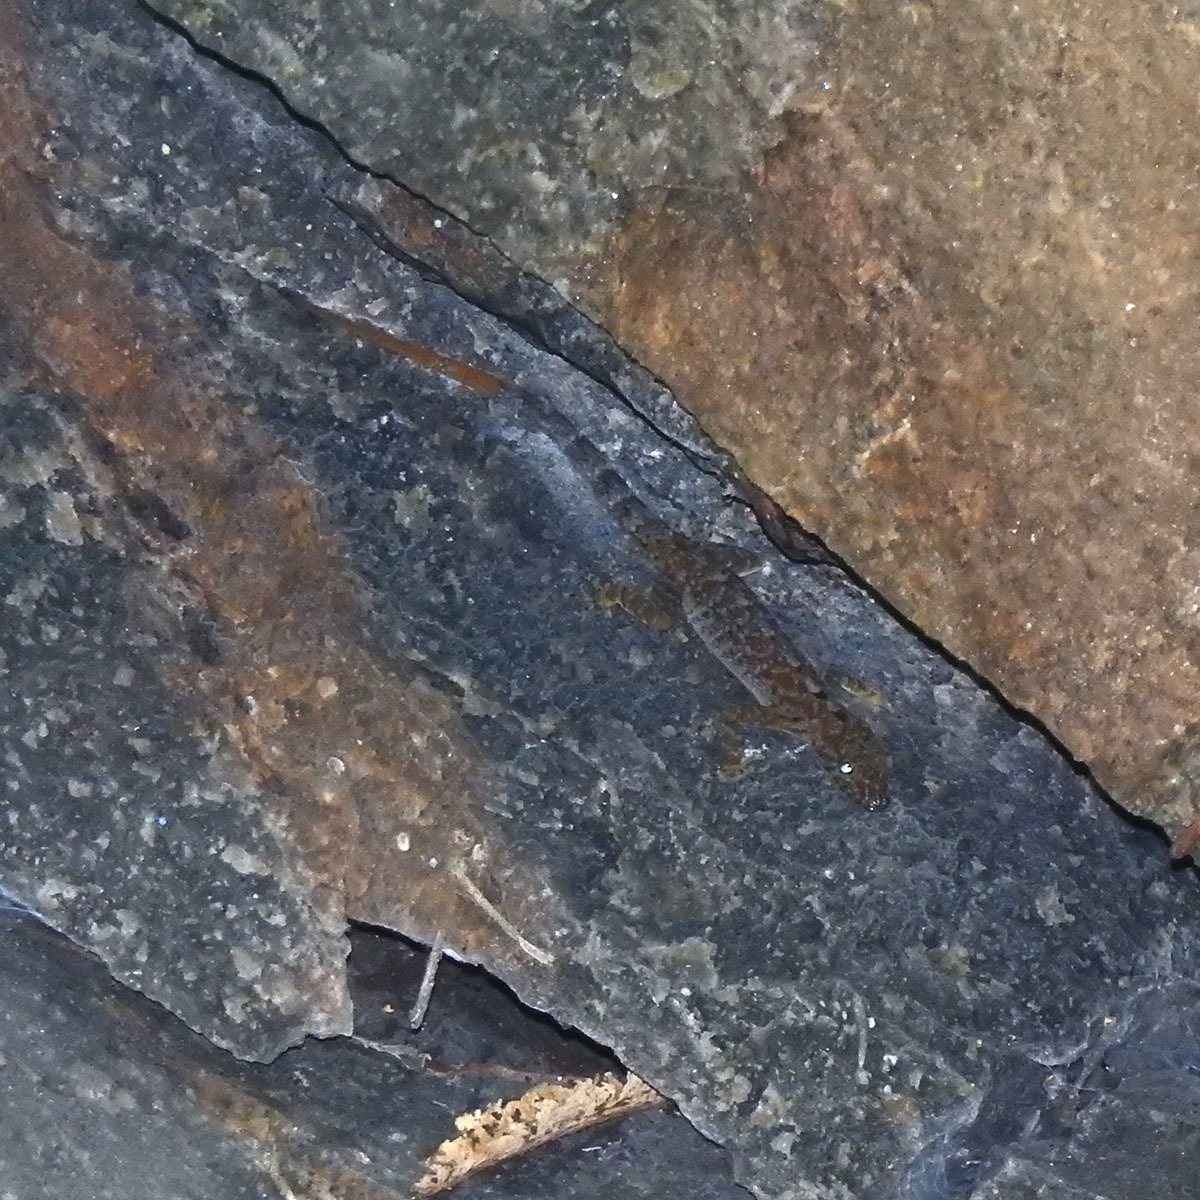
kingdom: Animalia
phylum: Chordata
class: Squamata
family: Gekkonidae
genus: Cnemaspis
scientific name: Cnemaspis gracilis
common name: Graceful day gecko
